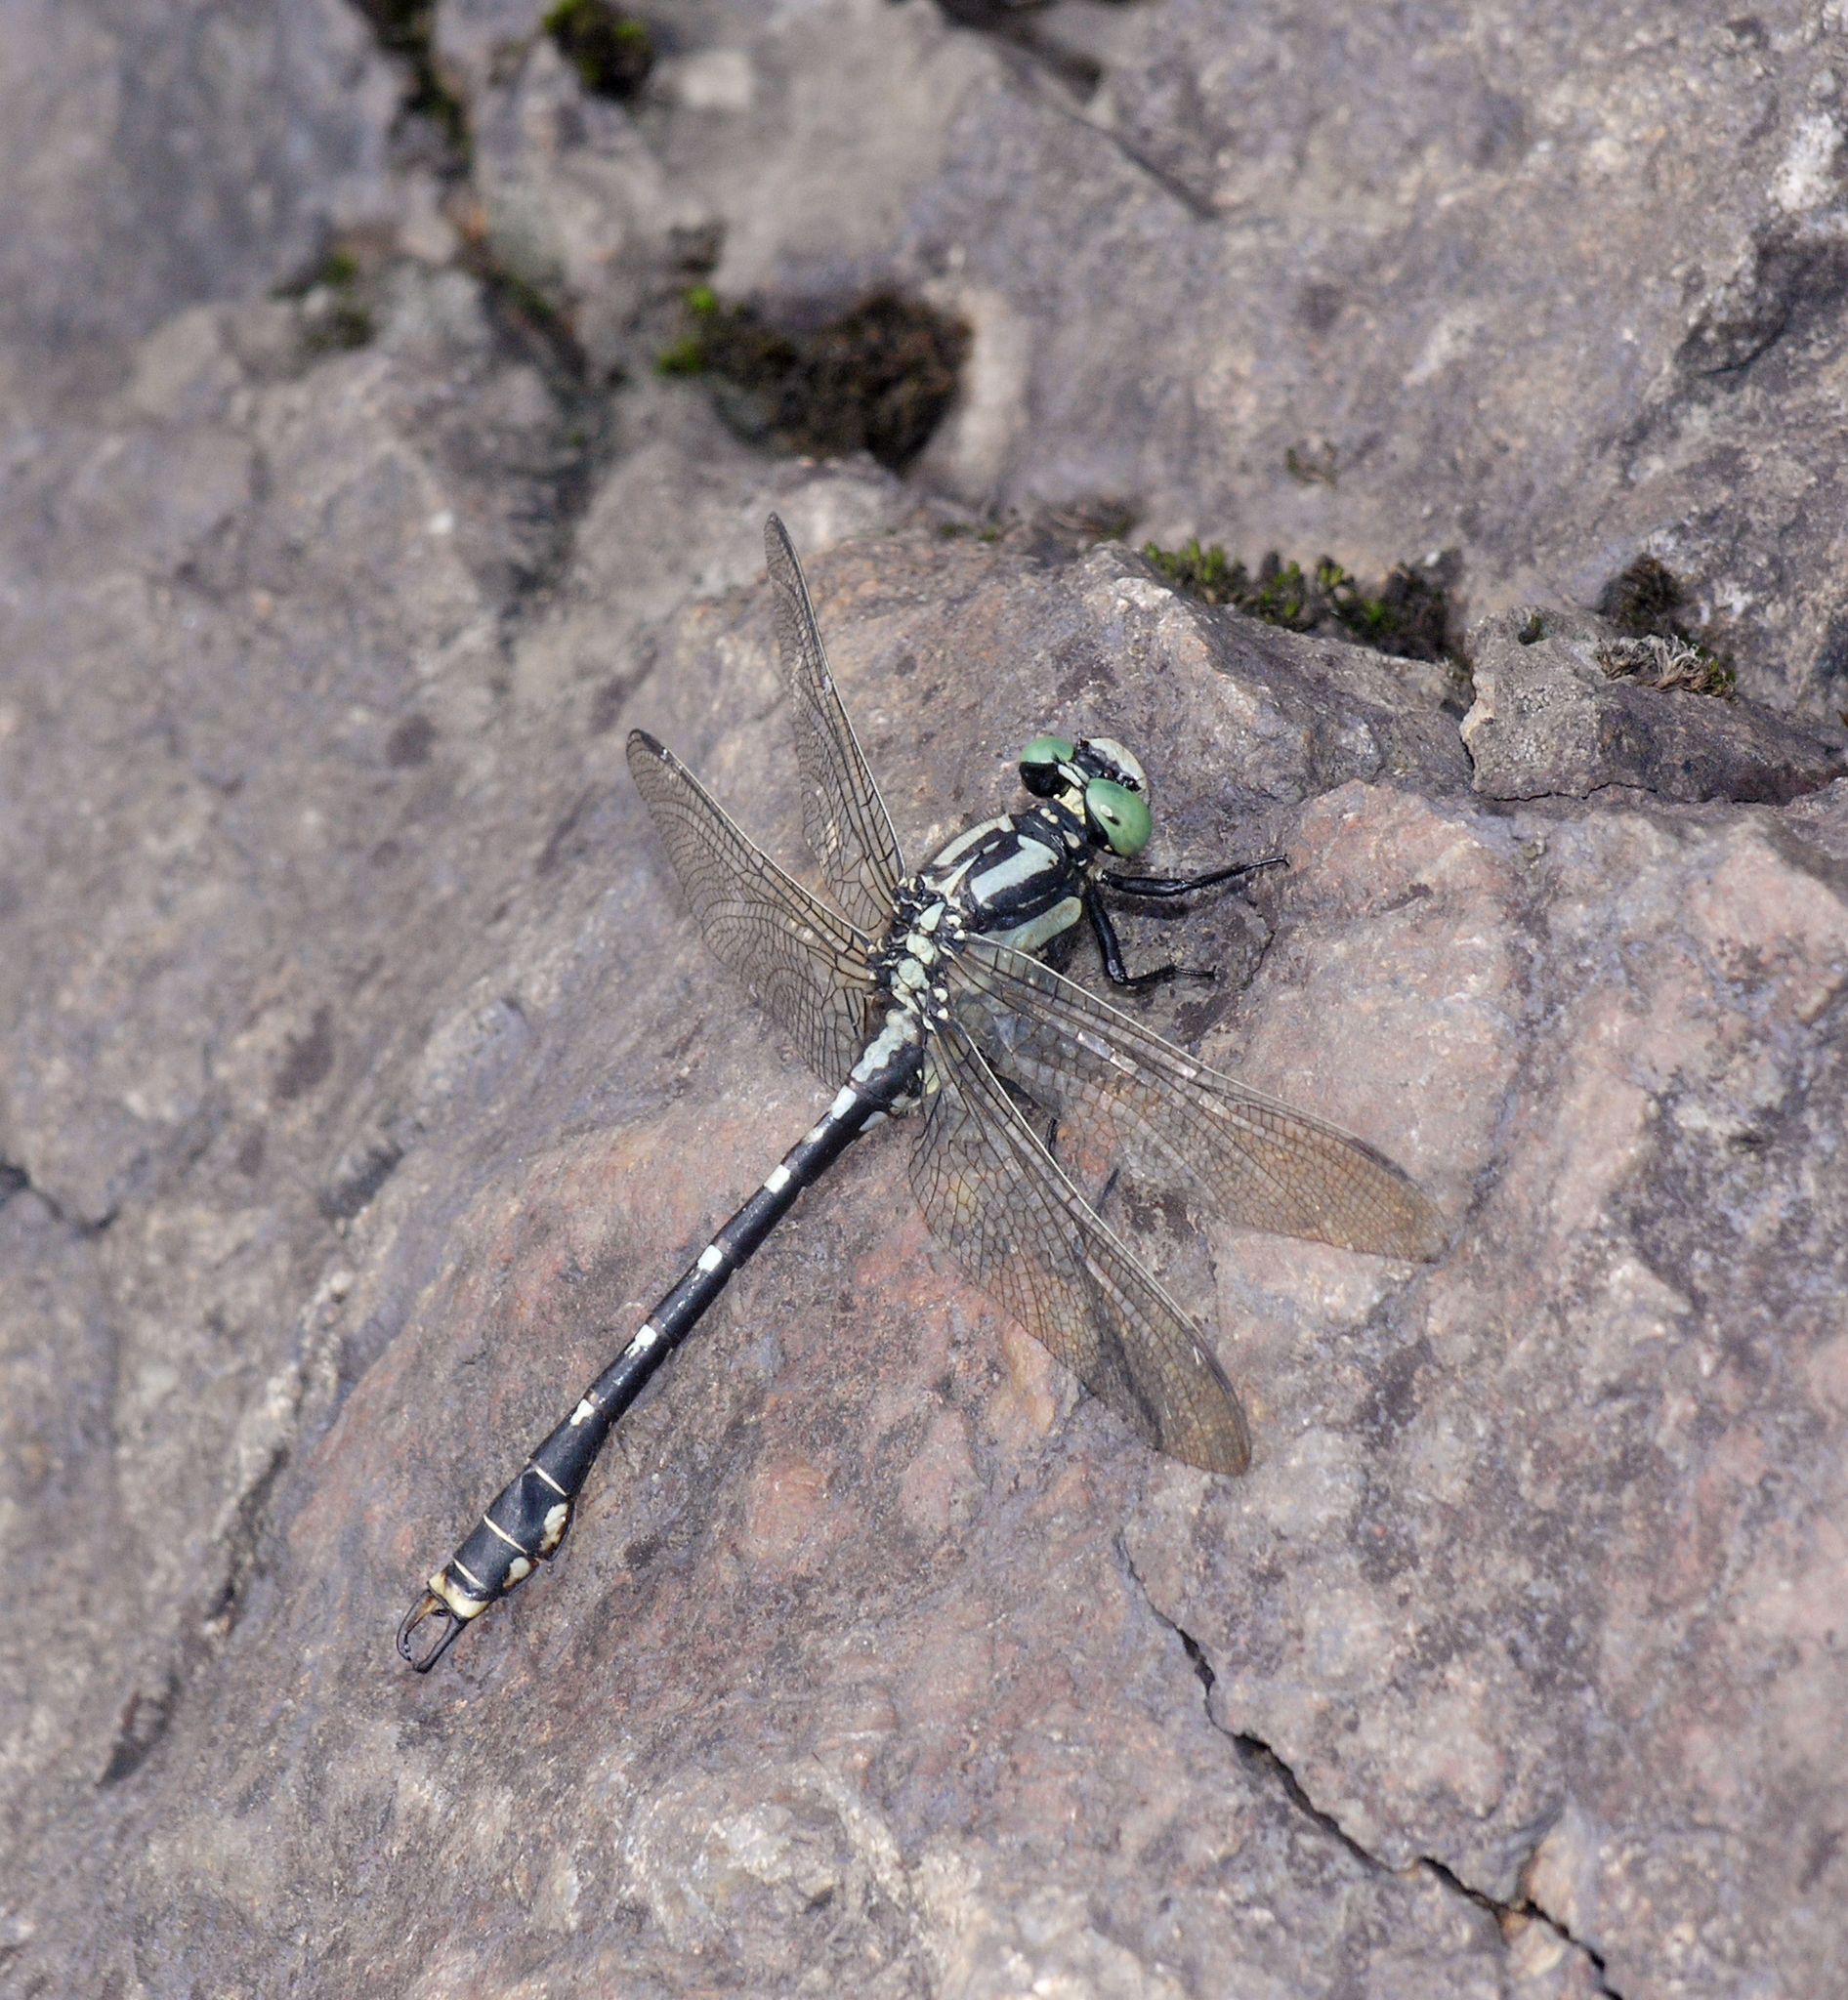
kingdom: Animalia
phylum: Arthropoda
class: Insecta
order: Odonata
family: Gomphidae
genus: Nihonogomphus
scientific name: Nihonogomphus ruptus
